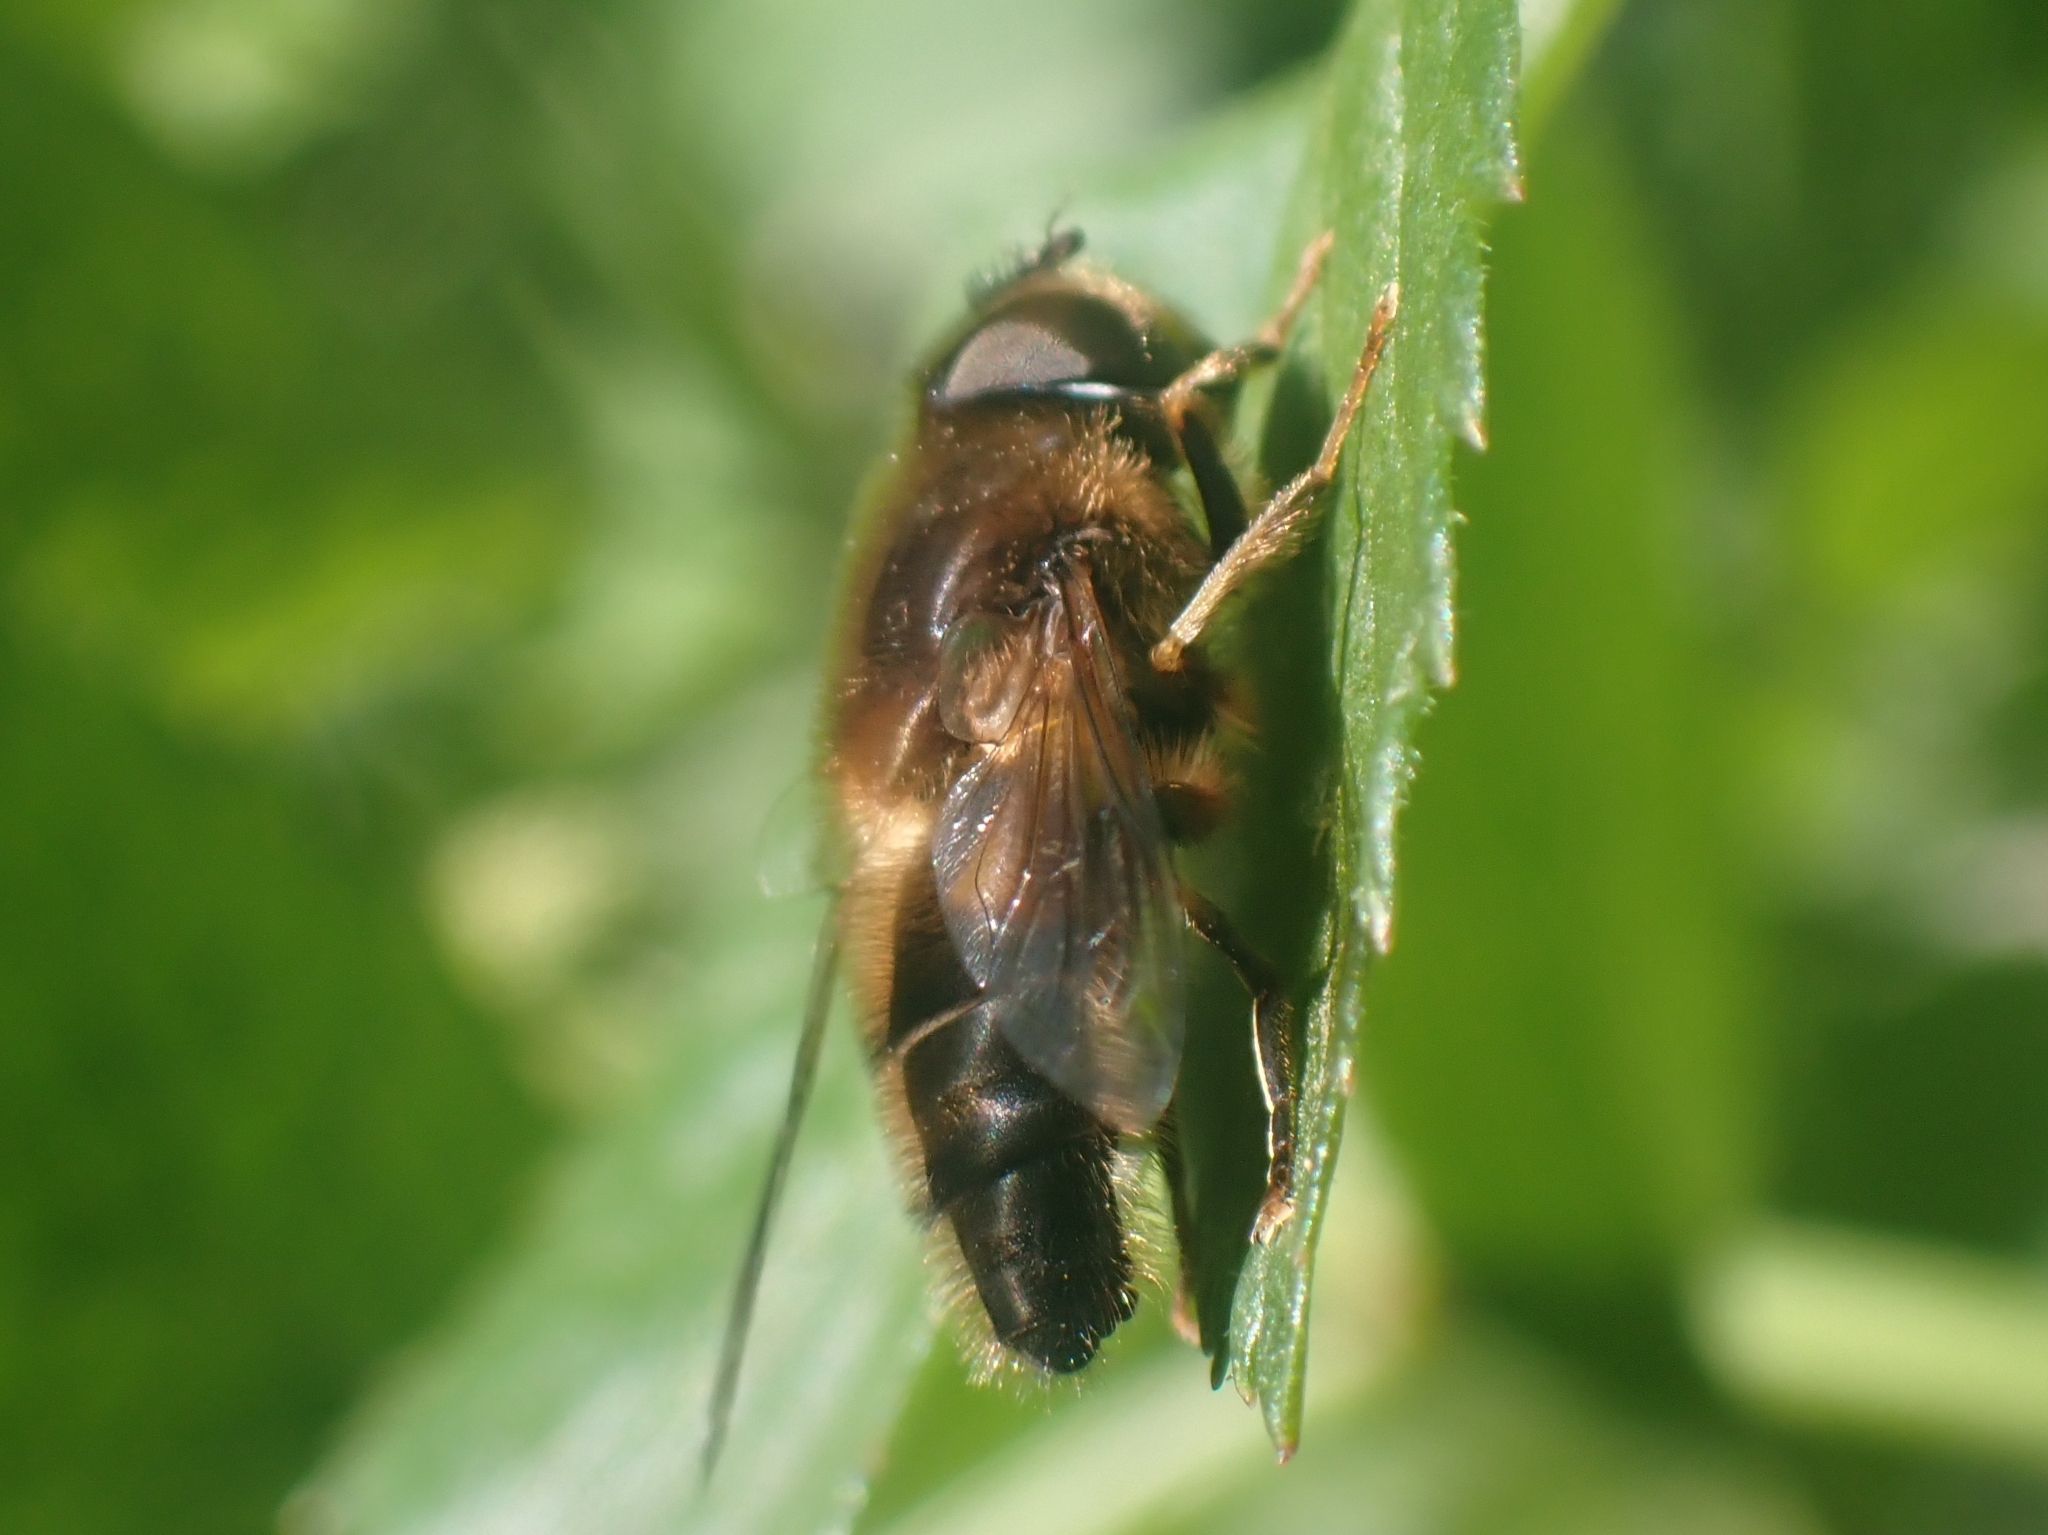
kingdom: Animalia
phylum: Arthropoda
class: Insecta
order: Diptera
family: Syrphidae
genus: Eristalis
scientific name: Eristalis pertinax
